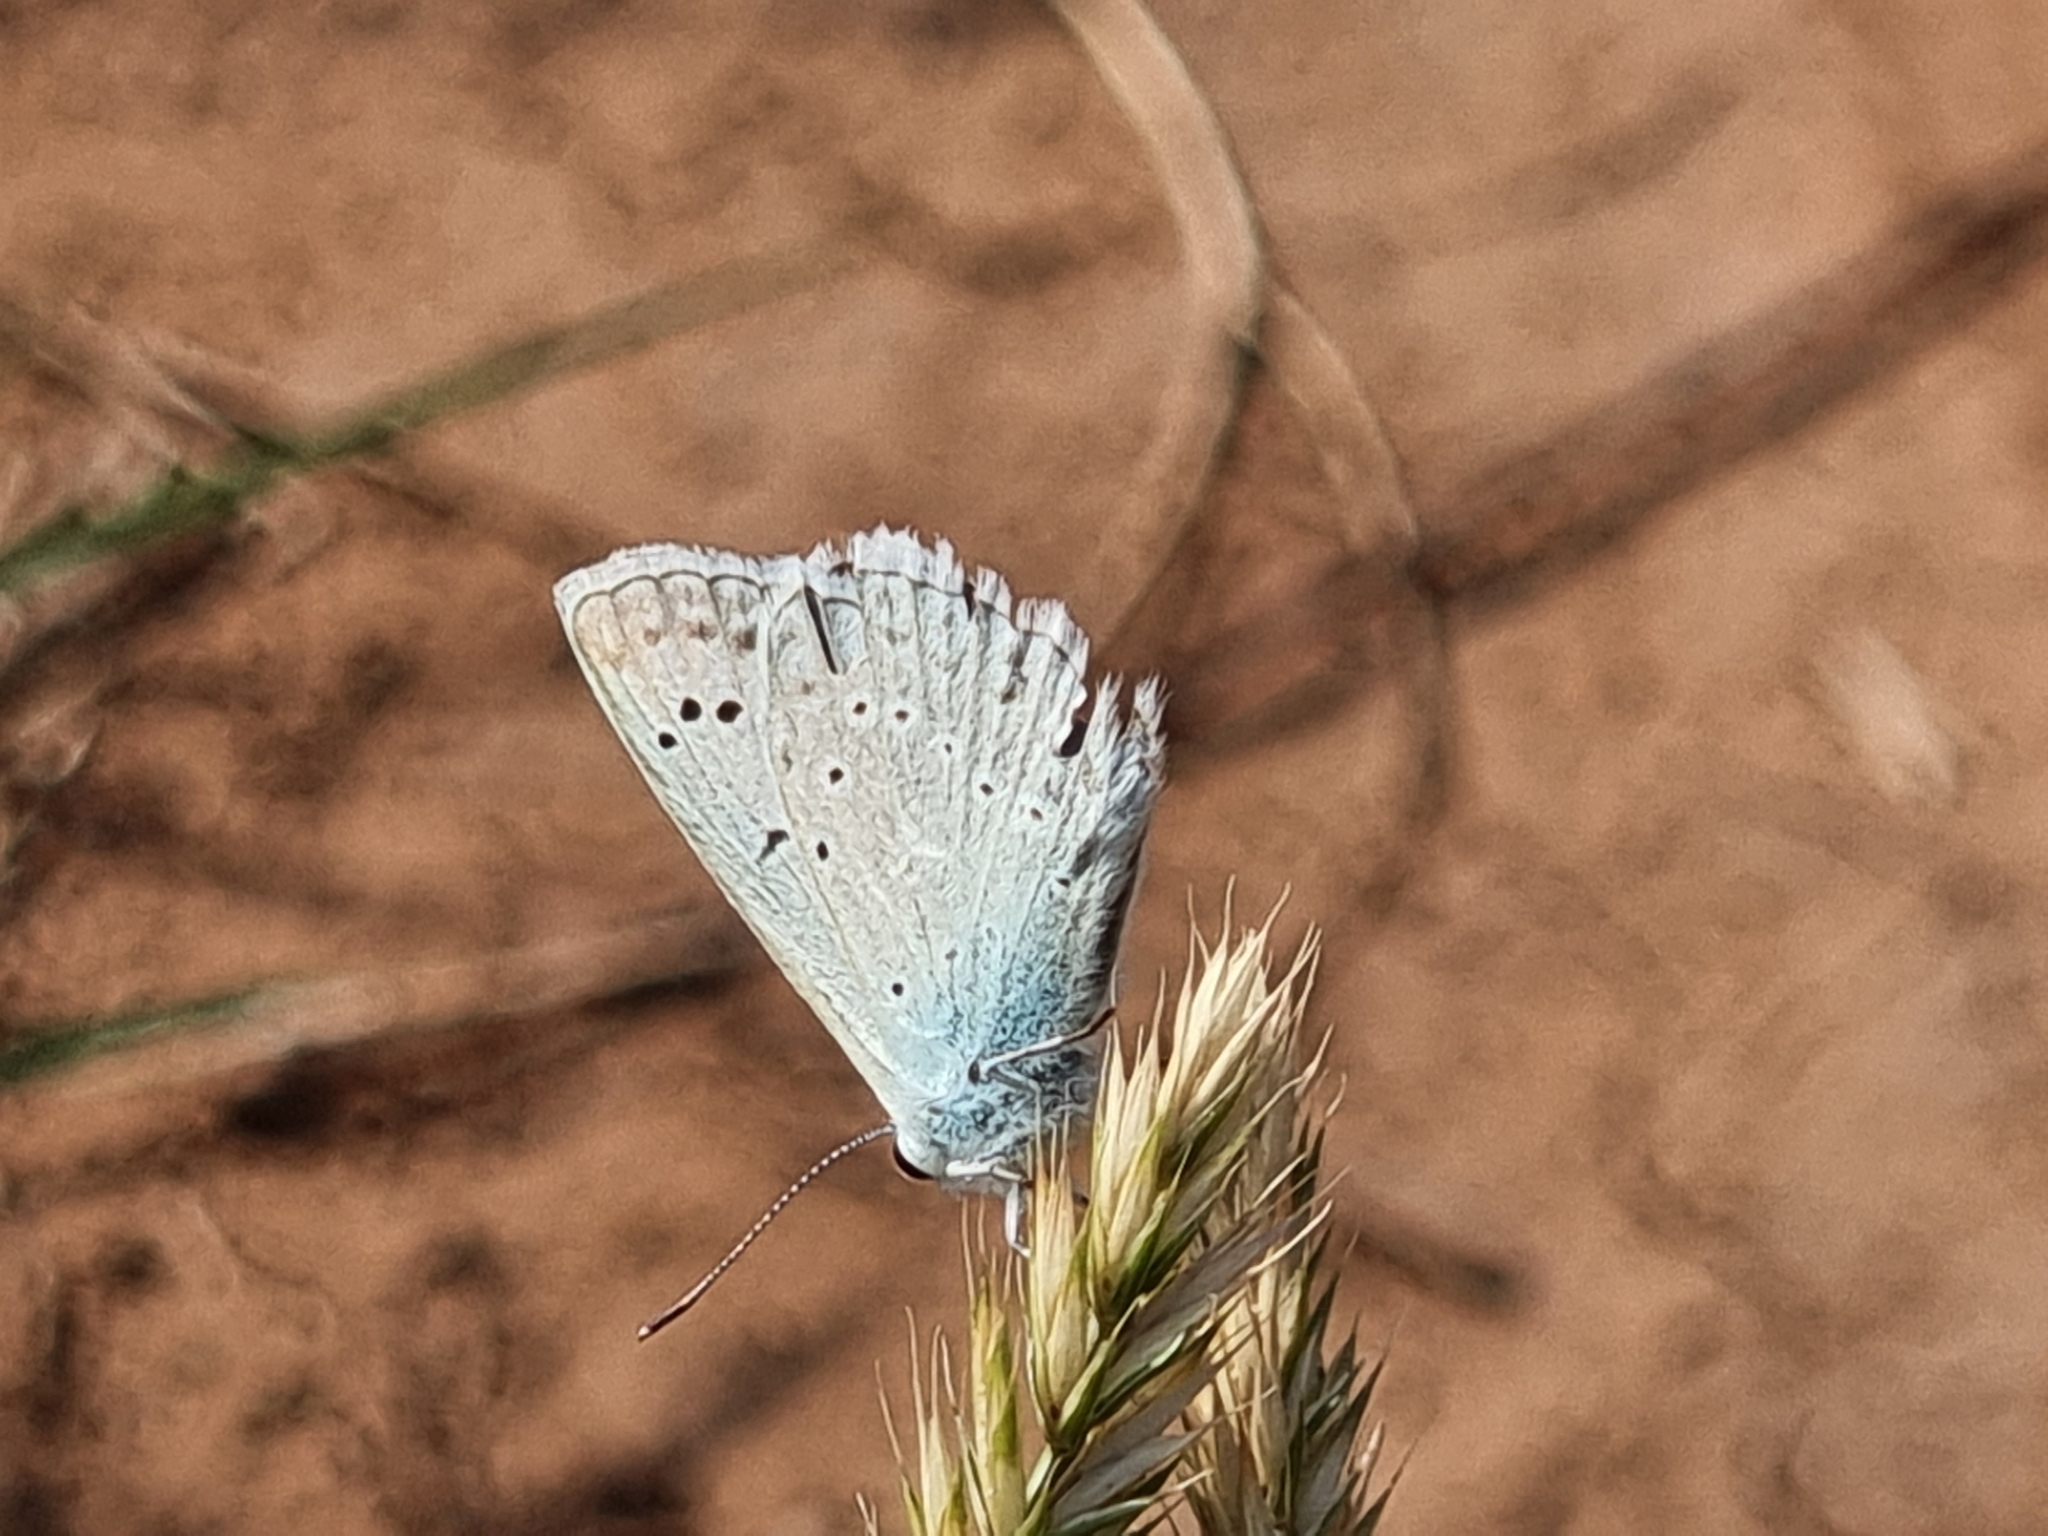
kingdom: Animalia
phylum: Arthropoda
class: Insecta
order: Lepidoptera
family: Lycaenidae
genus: Polyommatus
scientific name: Polyommatus daphnis
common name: Meleager's blue
